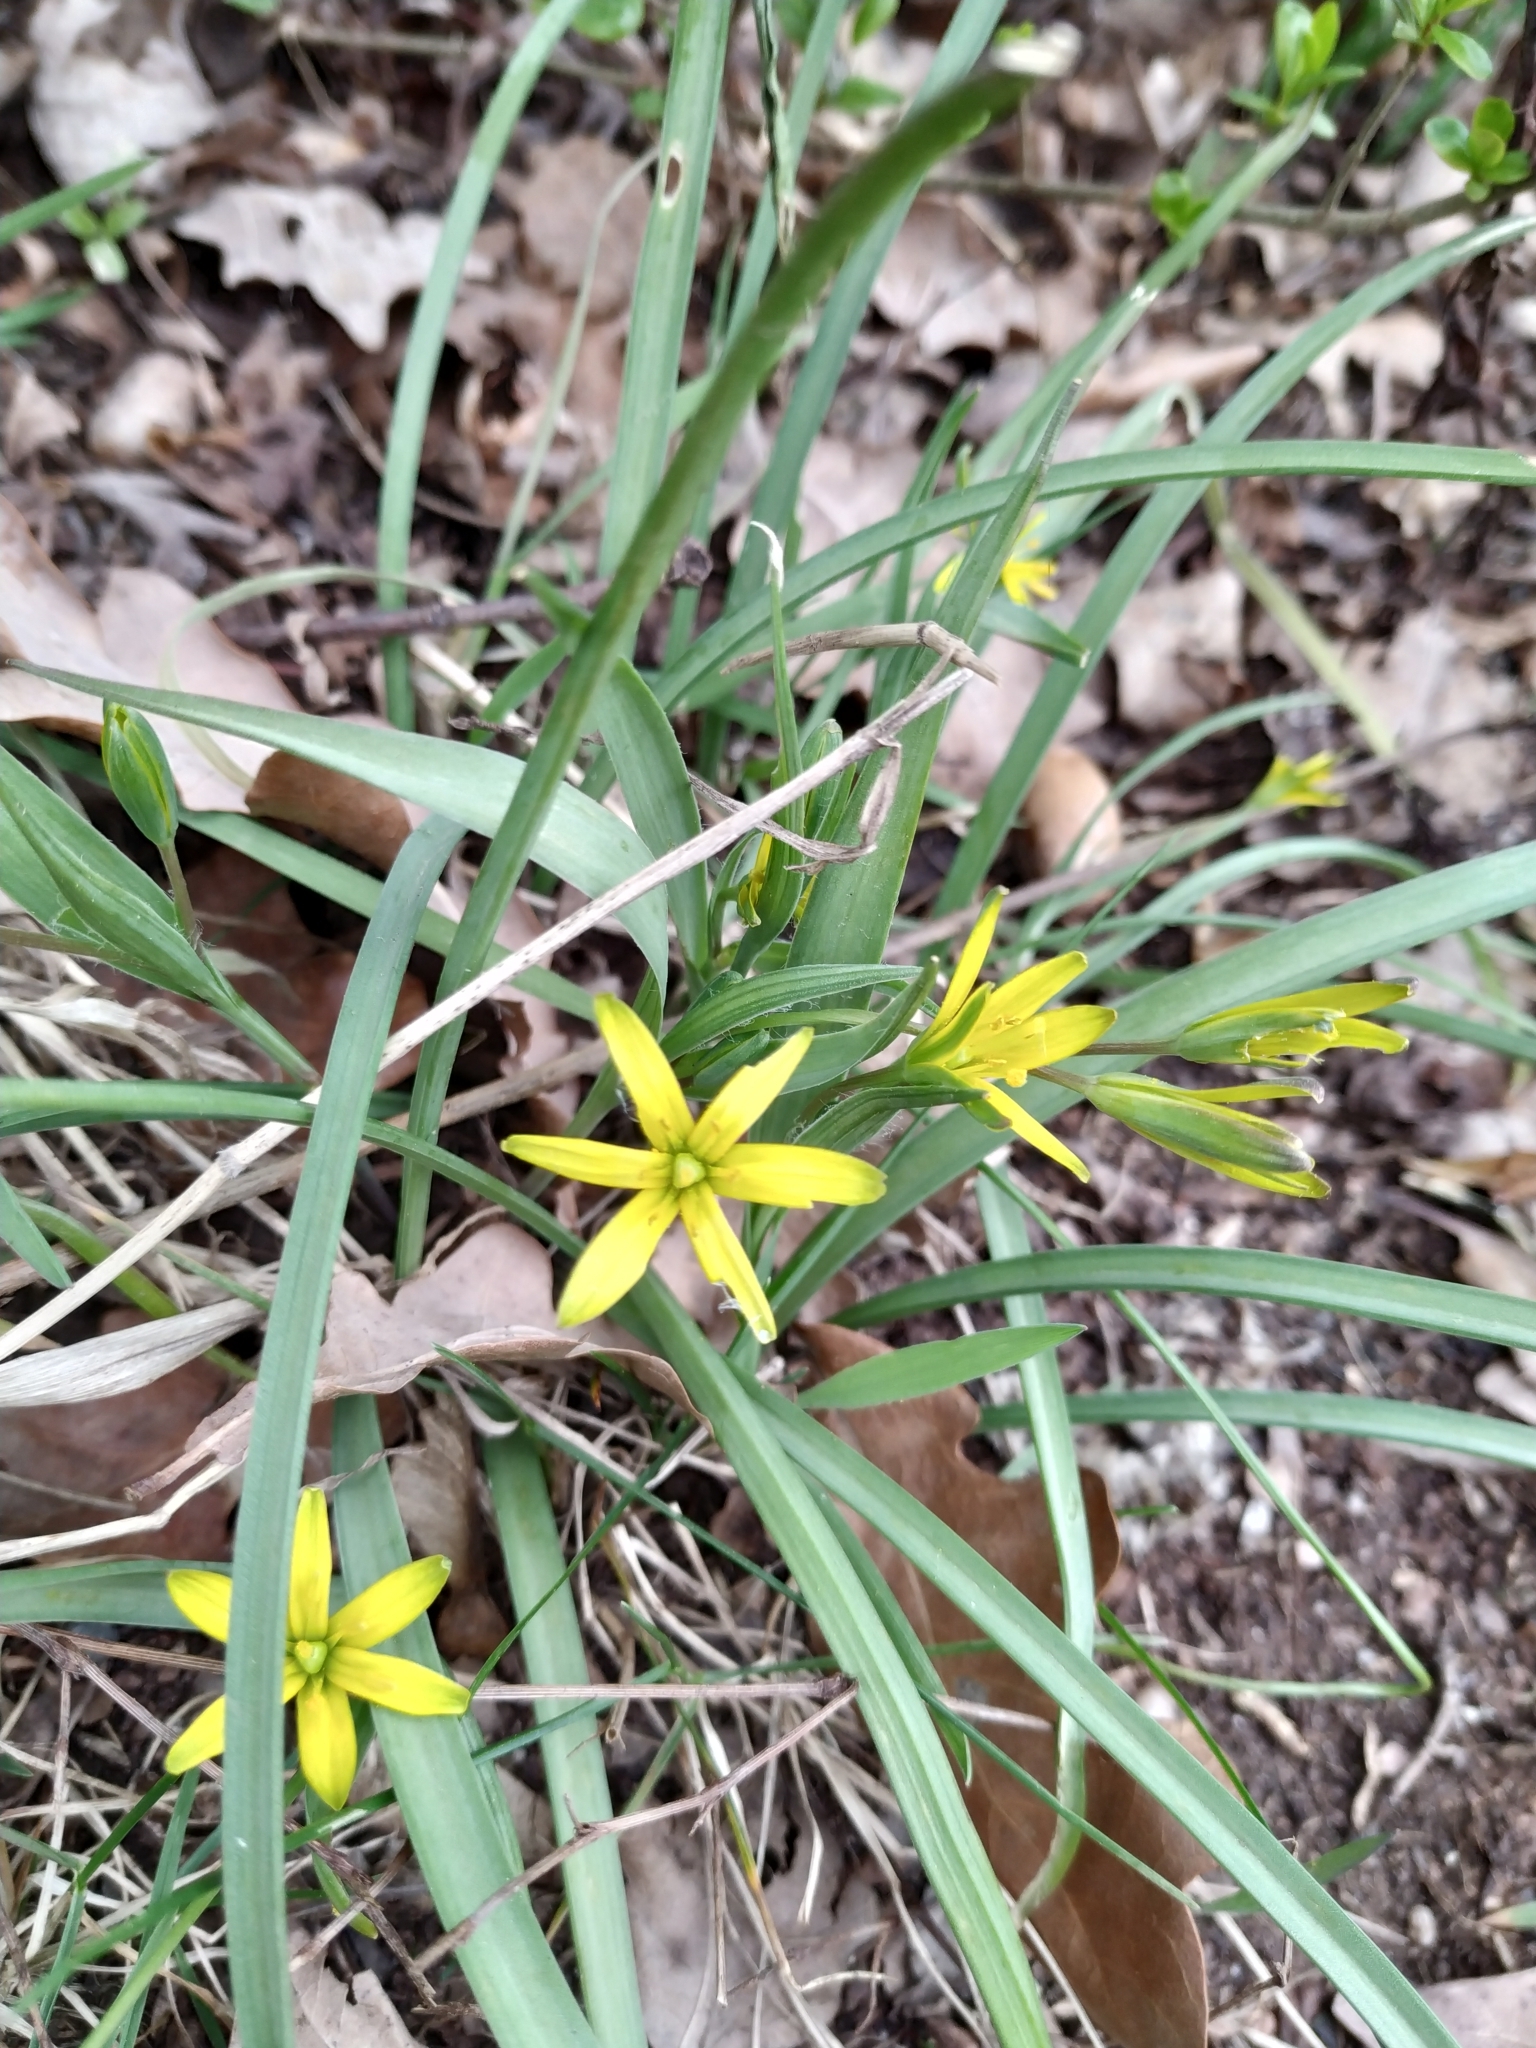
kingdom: Plantae
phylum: Tracheophyta
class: Liliopsida
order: Liliales
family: Liliaceae
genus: Gagea
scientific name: Gagea pratensis
